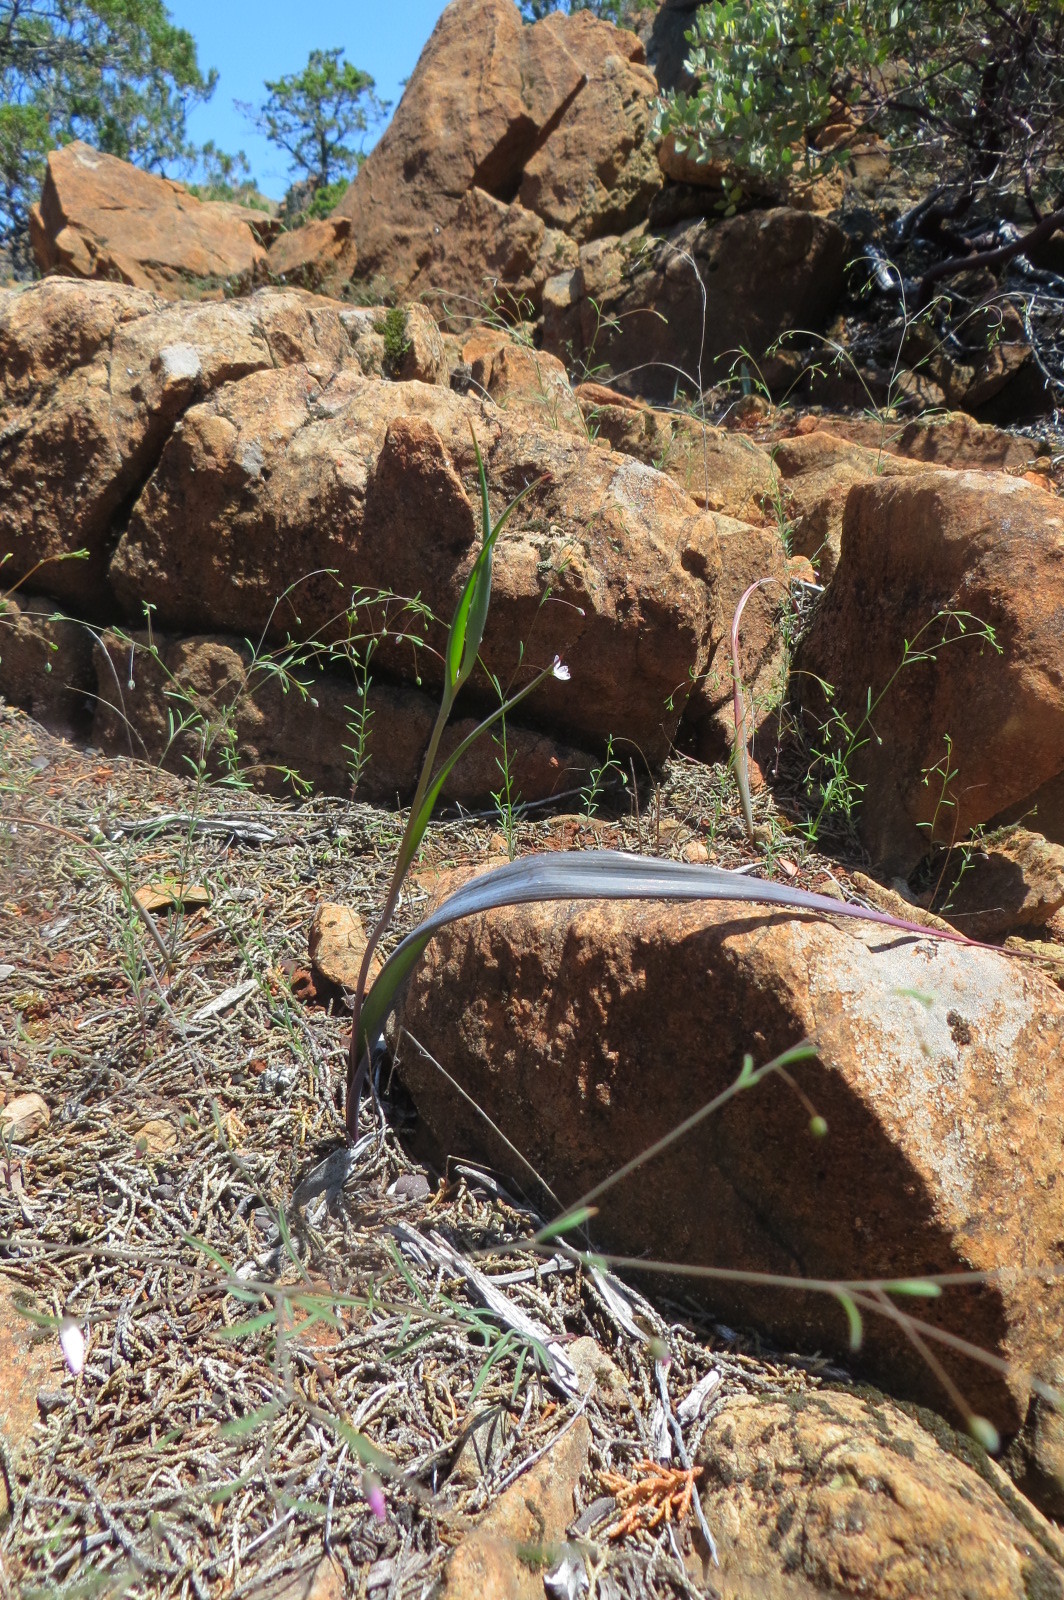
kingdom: Plantae
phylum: Tracheophyta
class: Liliopsida
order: Liliales
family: Liliaceae
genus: Calochortus
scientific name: Calochortus raichei
